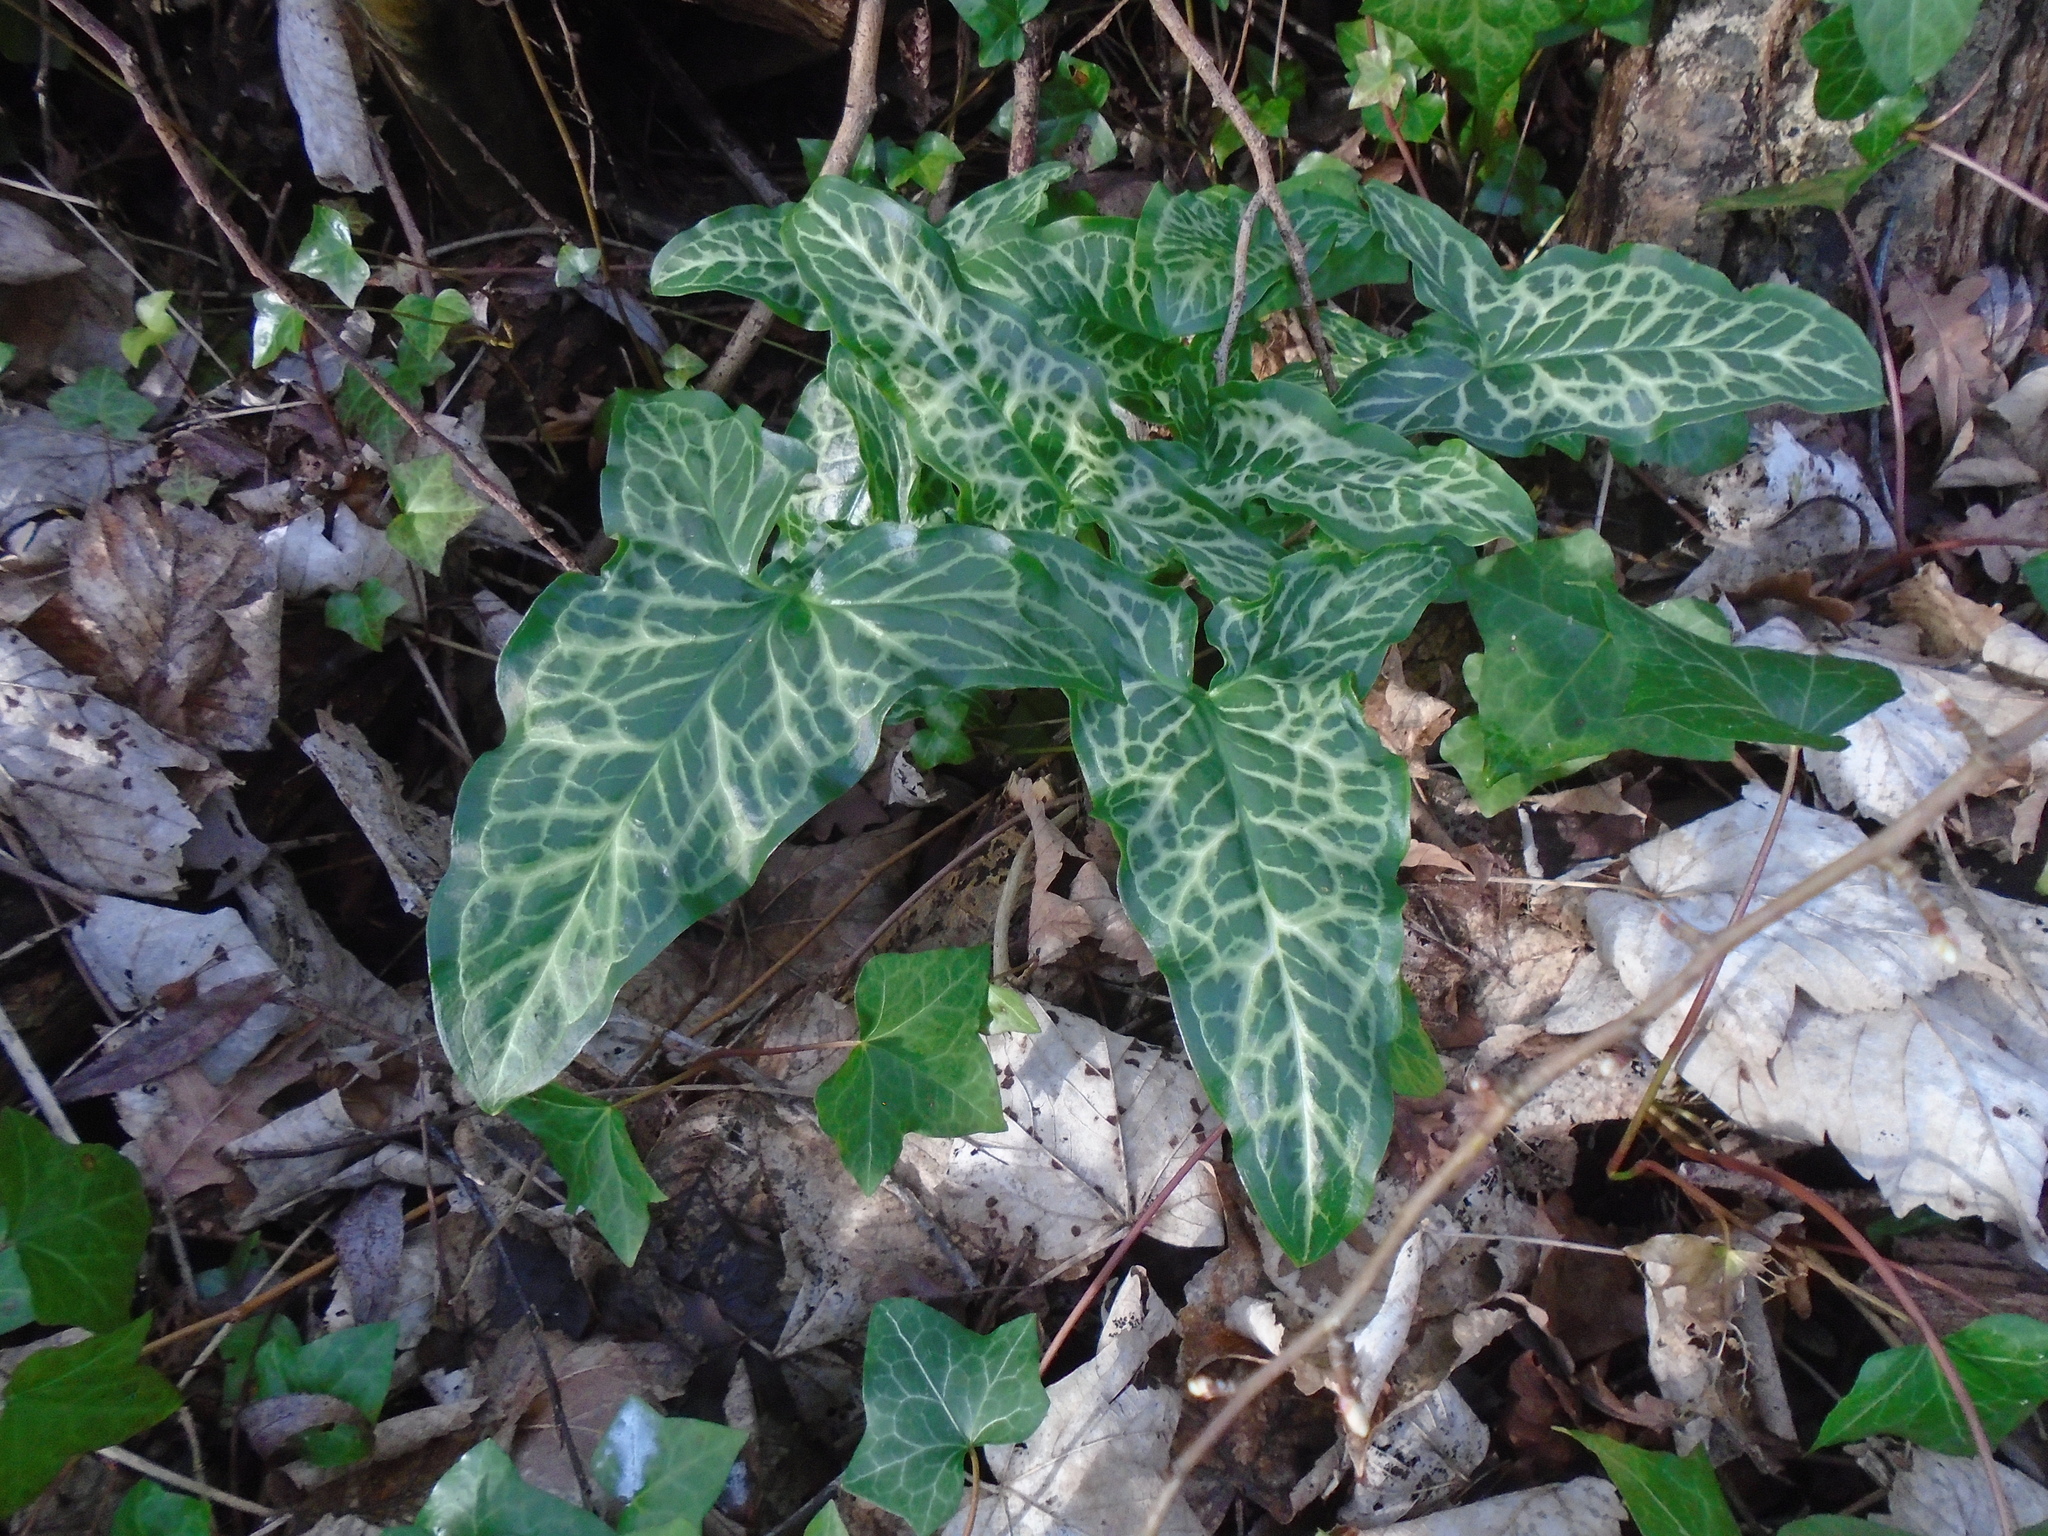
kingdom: Plantae
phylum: Tracheophyta
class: Liliopsida
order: Alismatales
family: Araceae
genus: Arum
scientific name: Arum italicum
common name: Italian lords-and-ladies
